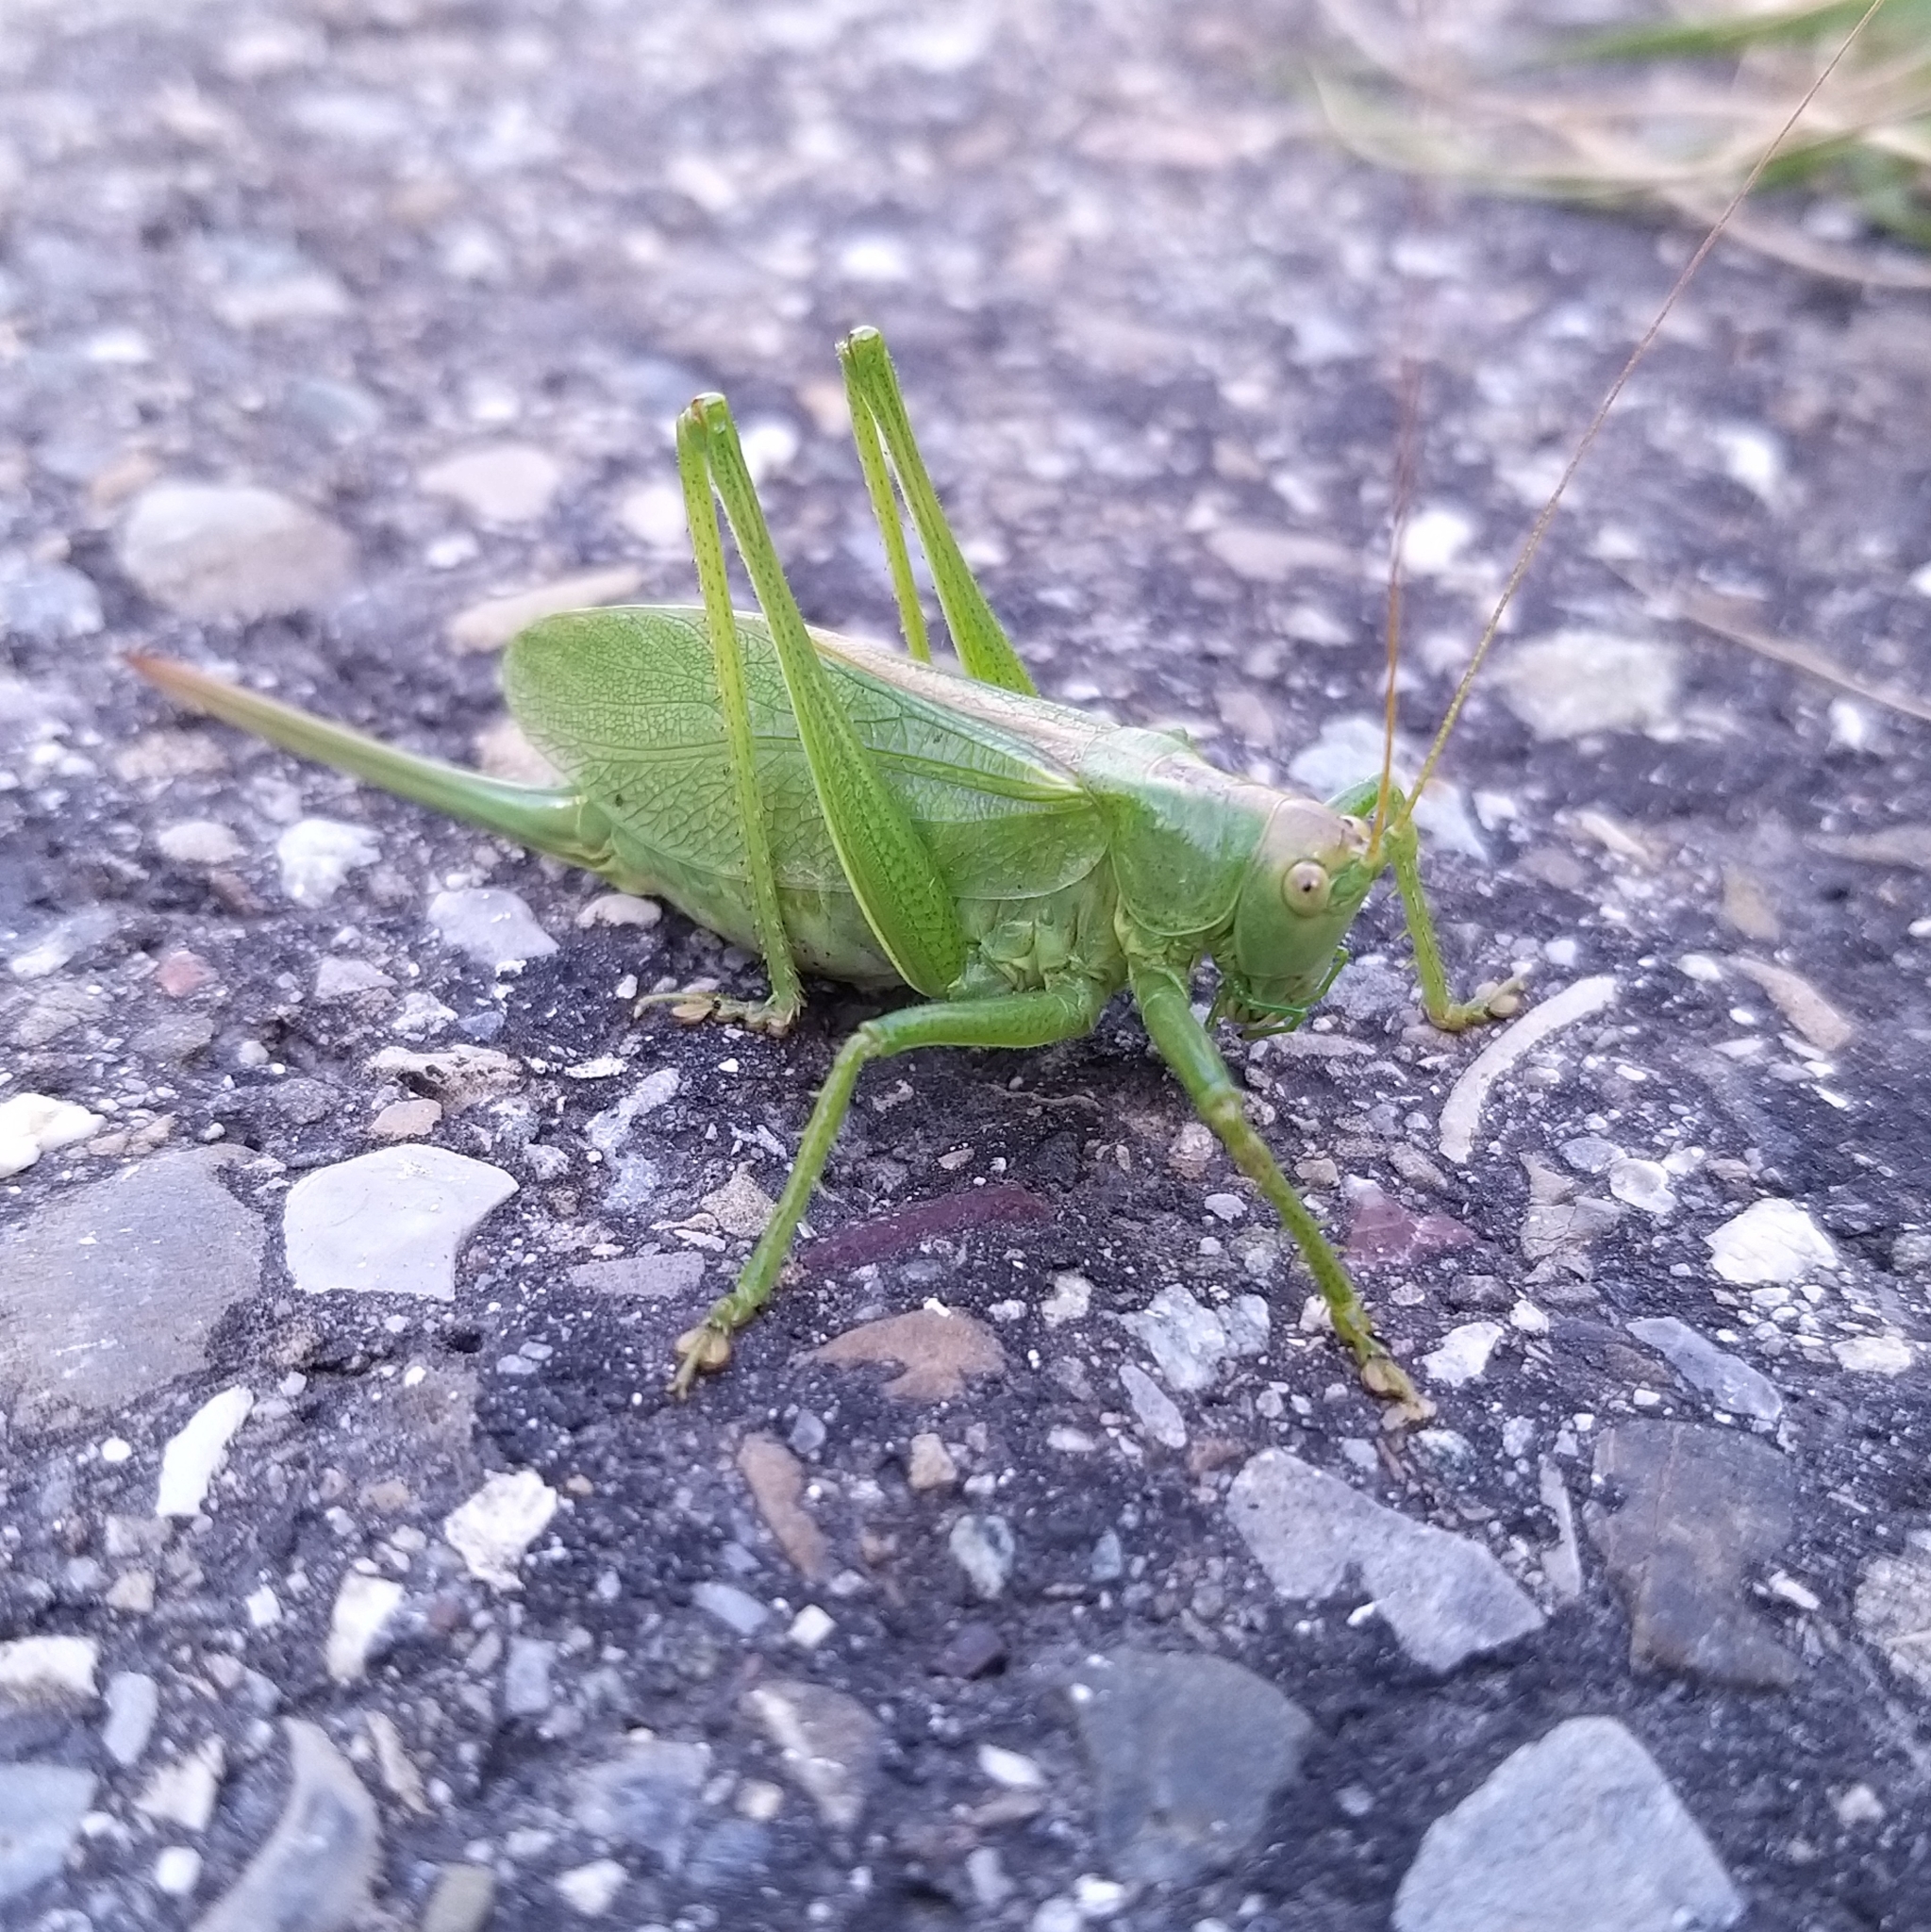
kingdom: Animalia
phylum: Arthropoda
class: Insecta
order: Orthoptera
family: Tettigoniidae
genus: Tettigonia
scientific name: Tettigonia cantans
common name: Upland green bush-cricket
